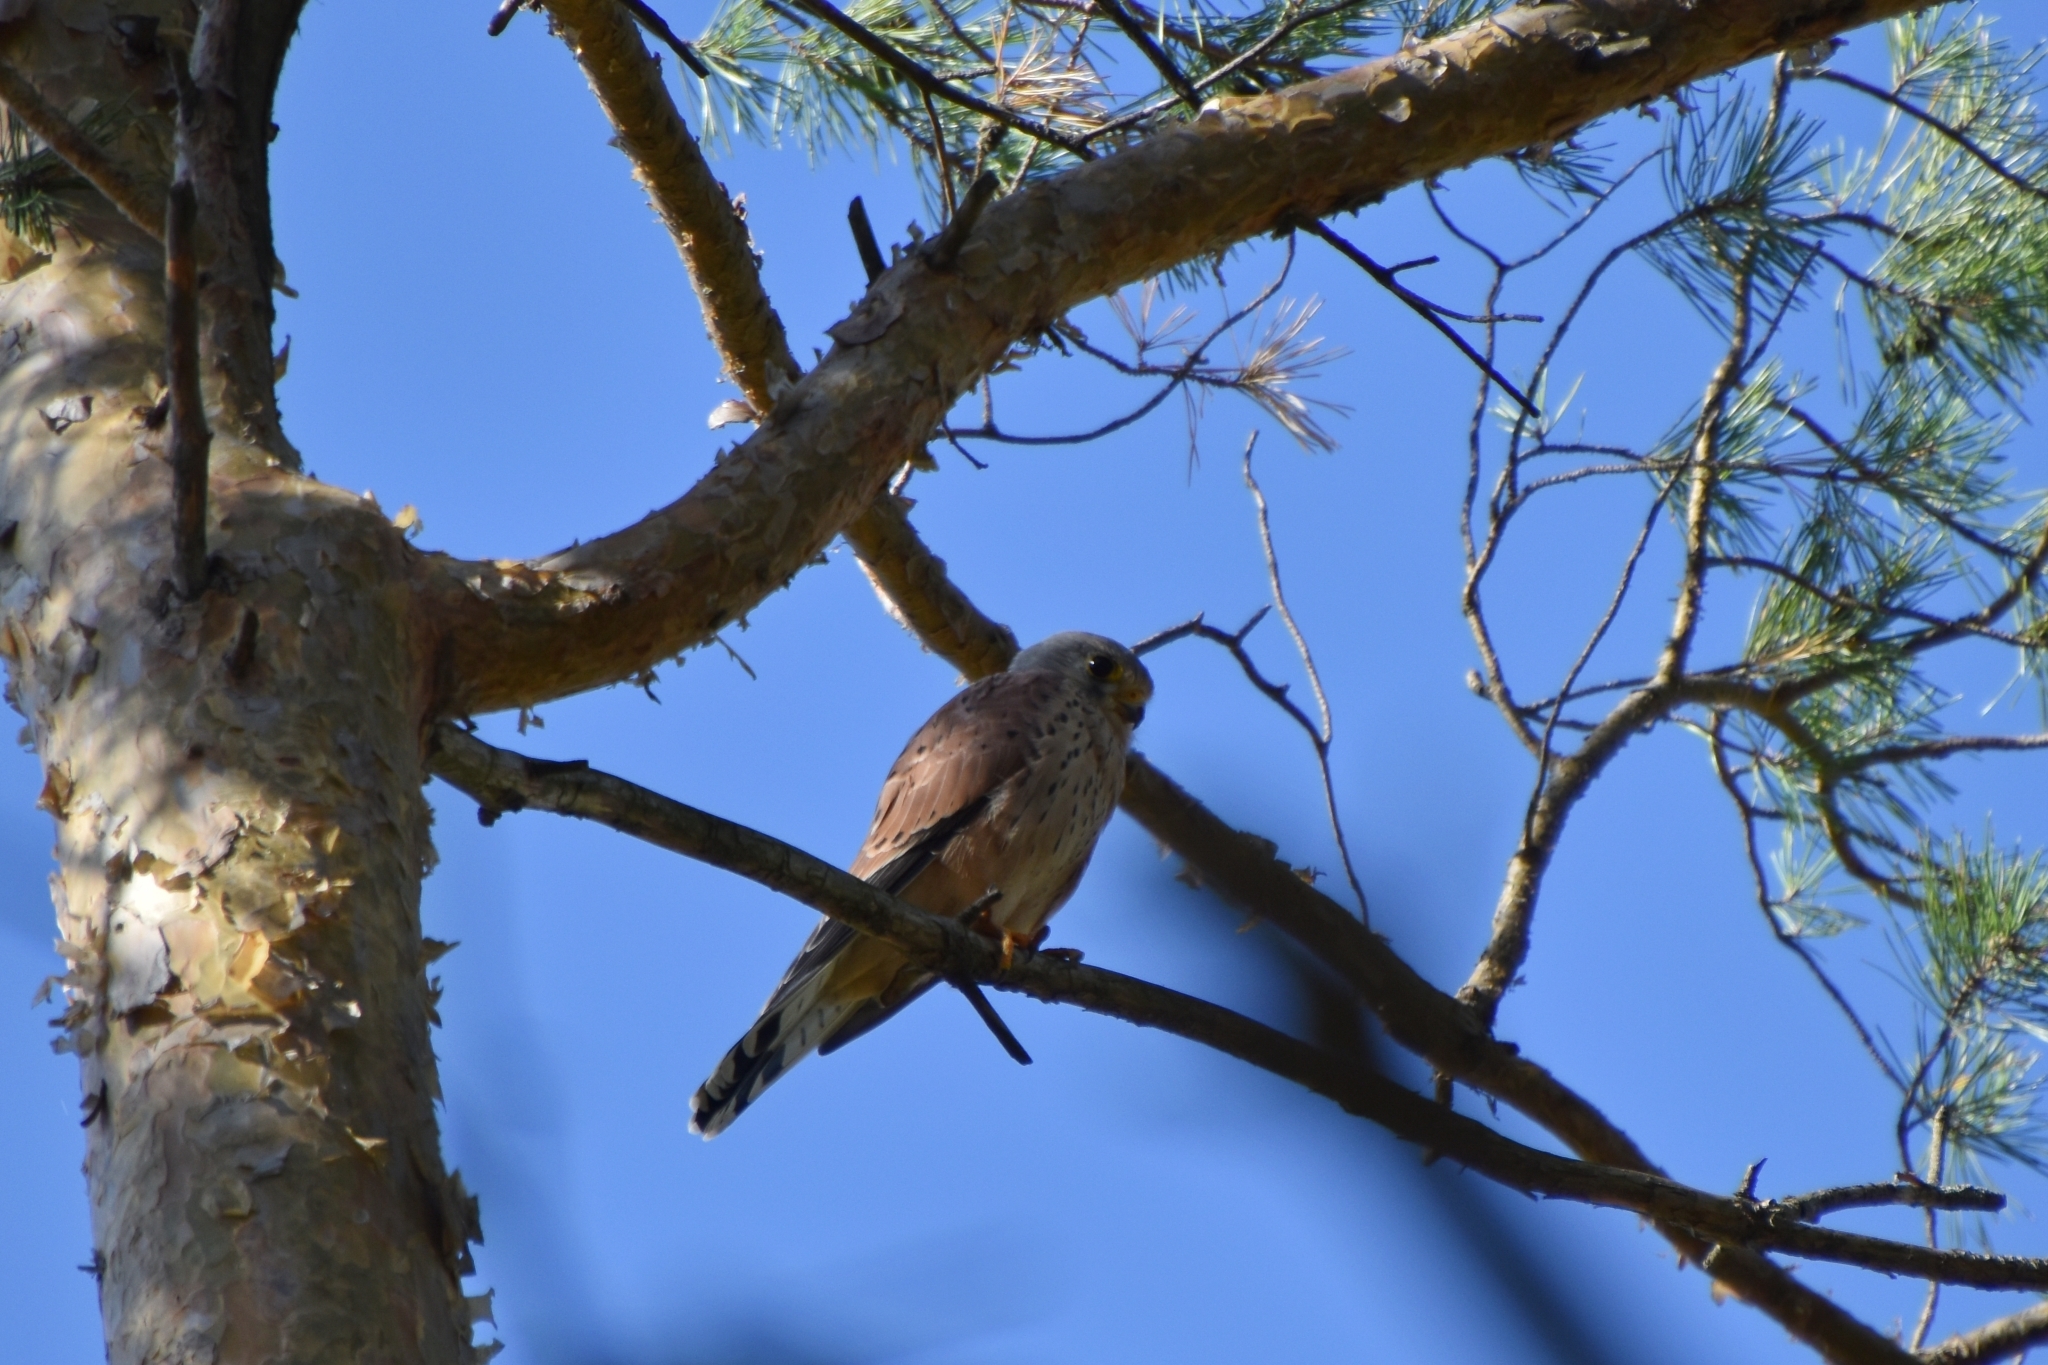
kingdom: Animalia
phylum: Chordata
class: Aves
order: Falconiformes
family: Falconidae
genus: Falco
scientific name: Falco tinnunculus
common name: Common kestrel
